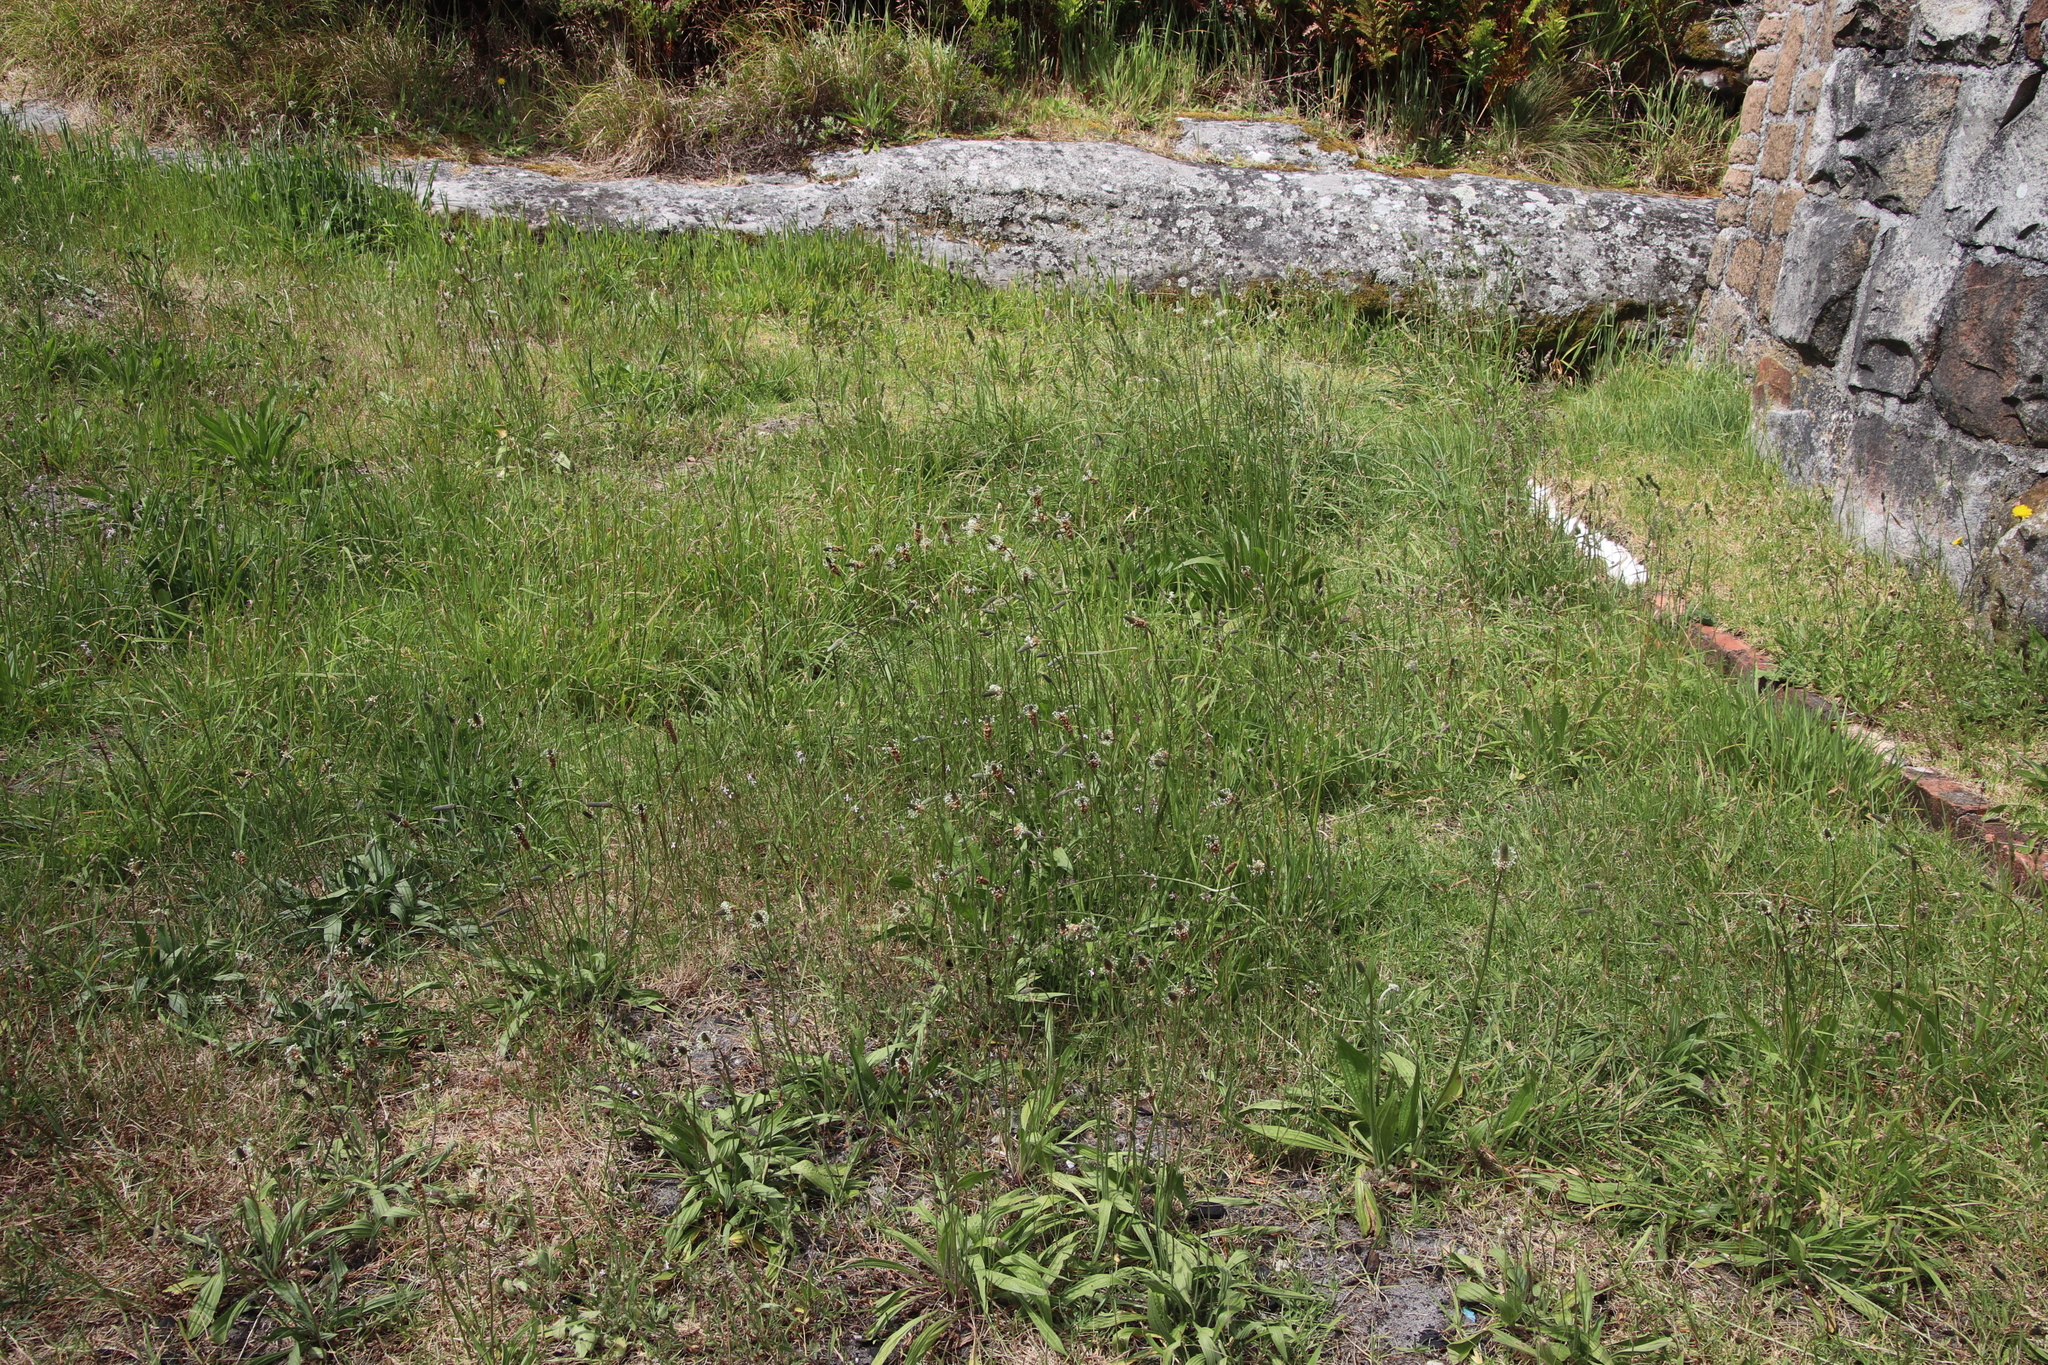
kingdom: Plantae
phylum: Tracheophyta
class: Magnoliopsida
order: Lamiales
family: Plantaginaceae
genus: Plantago
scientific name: Plantago lanceolata
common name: Ribwort plantain
